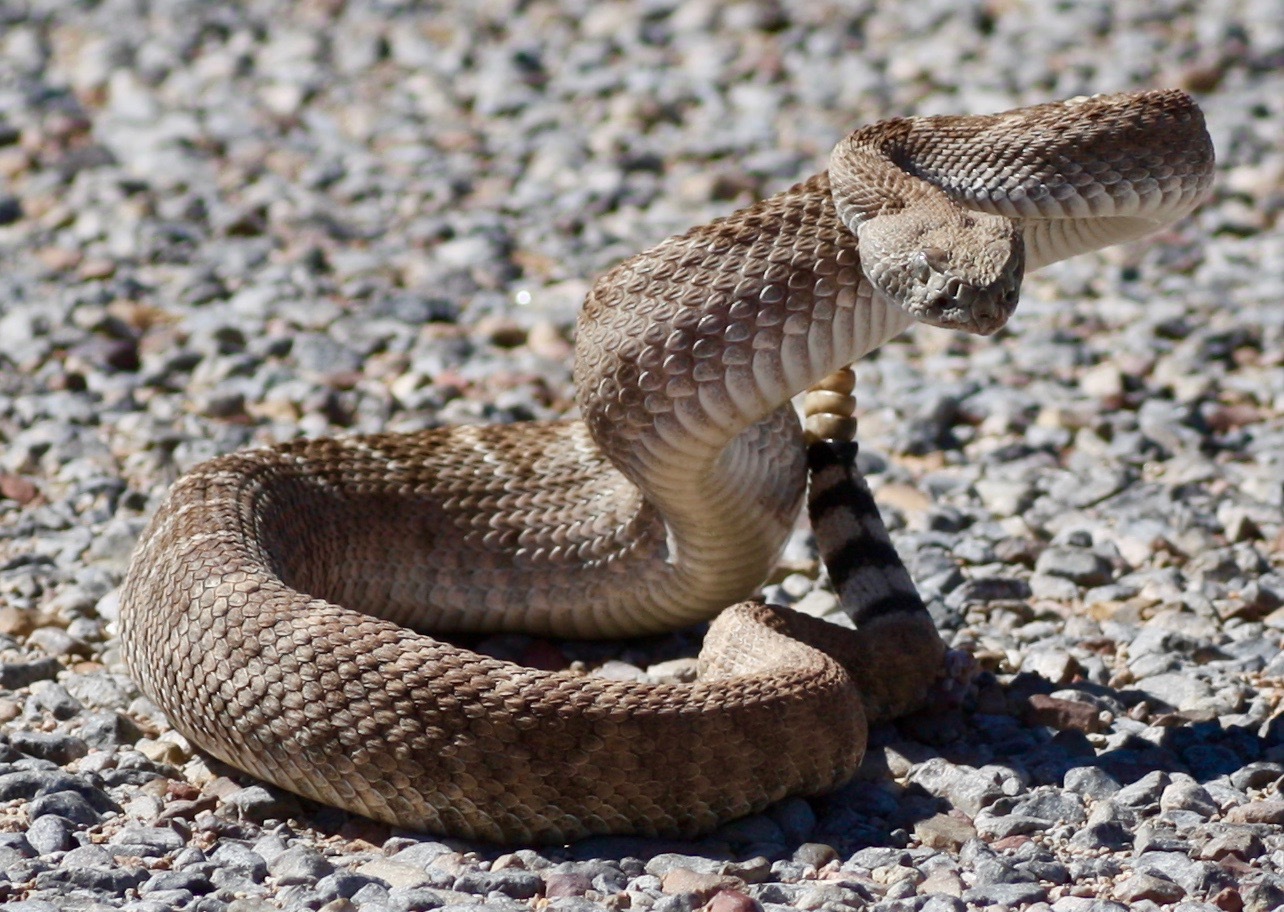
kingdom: Animalia
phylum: Chordata
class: Squamata
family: Viperidae
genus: Crotalus
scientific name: Crotalus atrox
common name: Western diamond-backed rattlesnake
